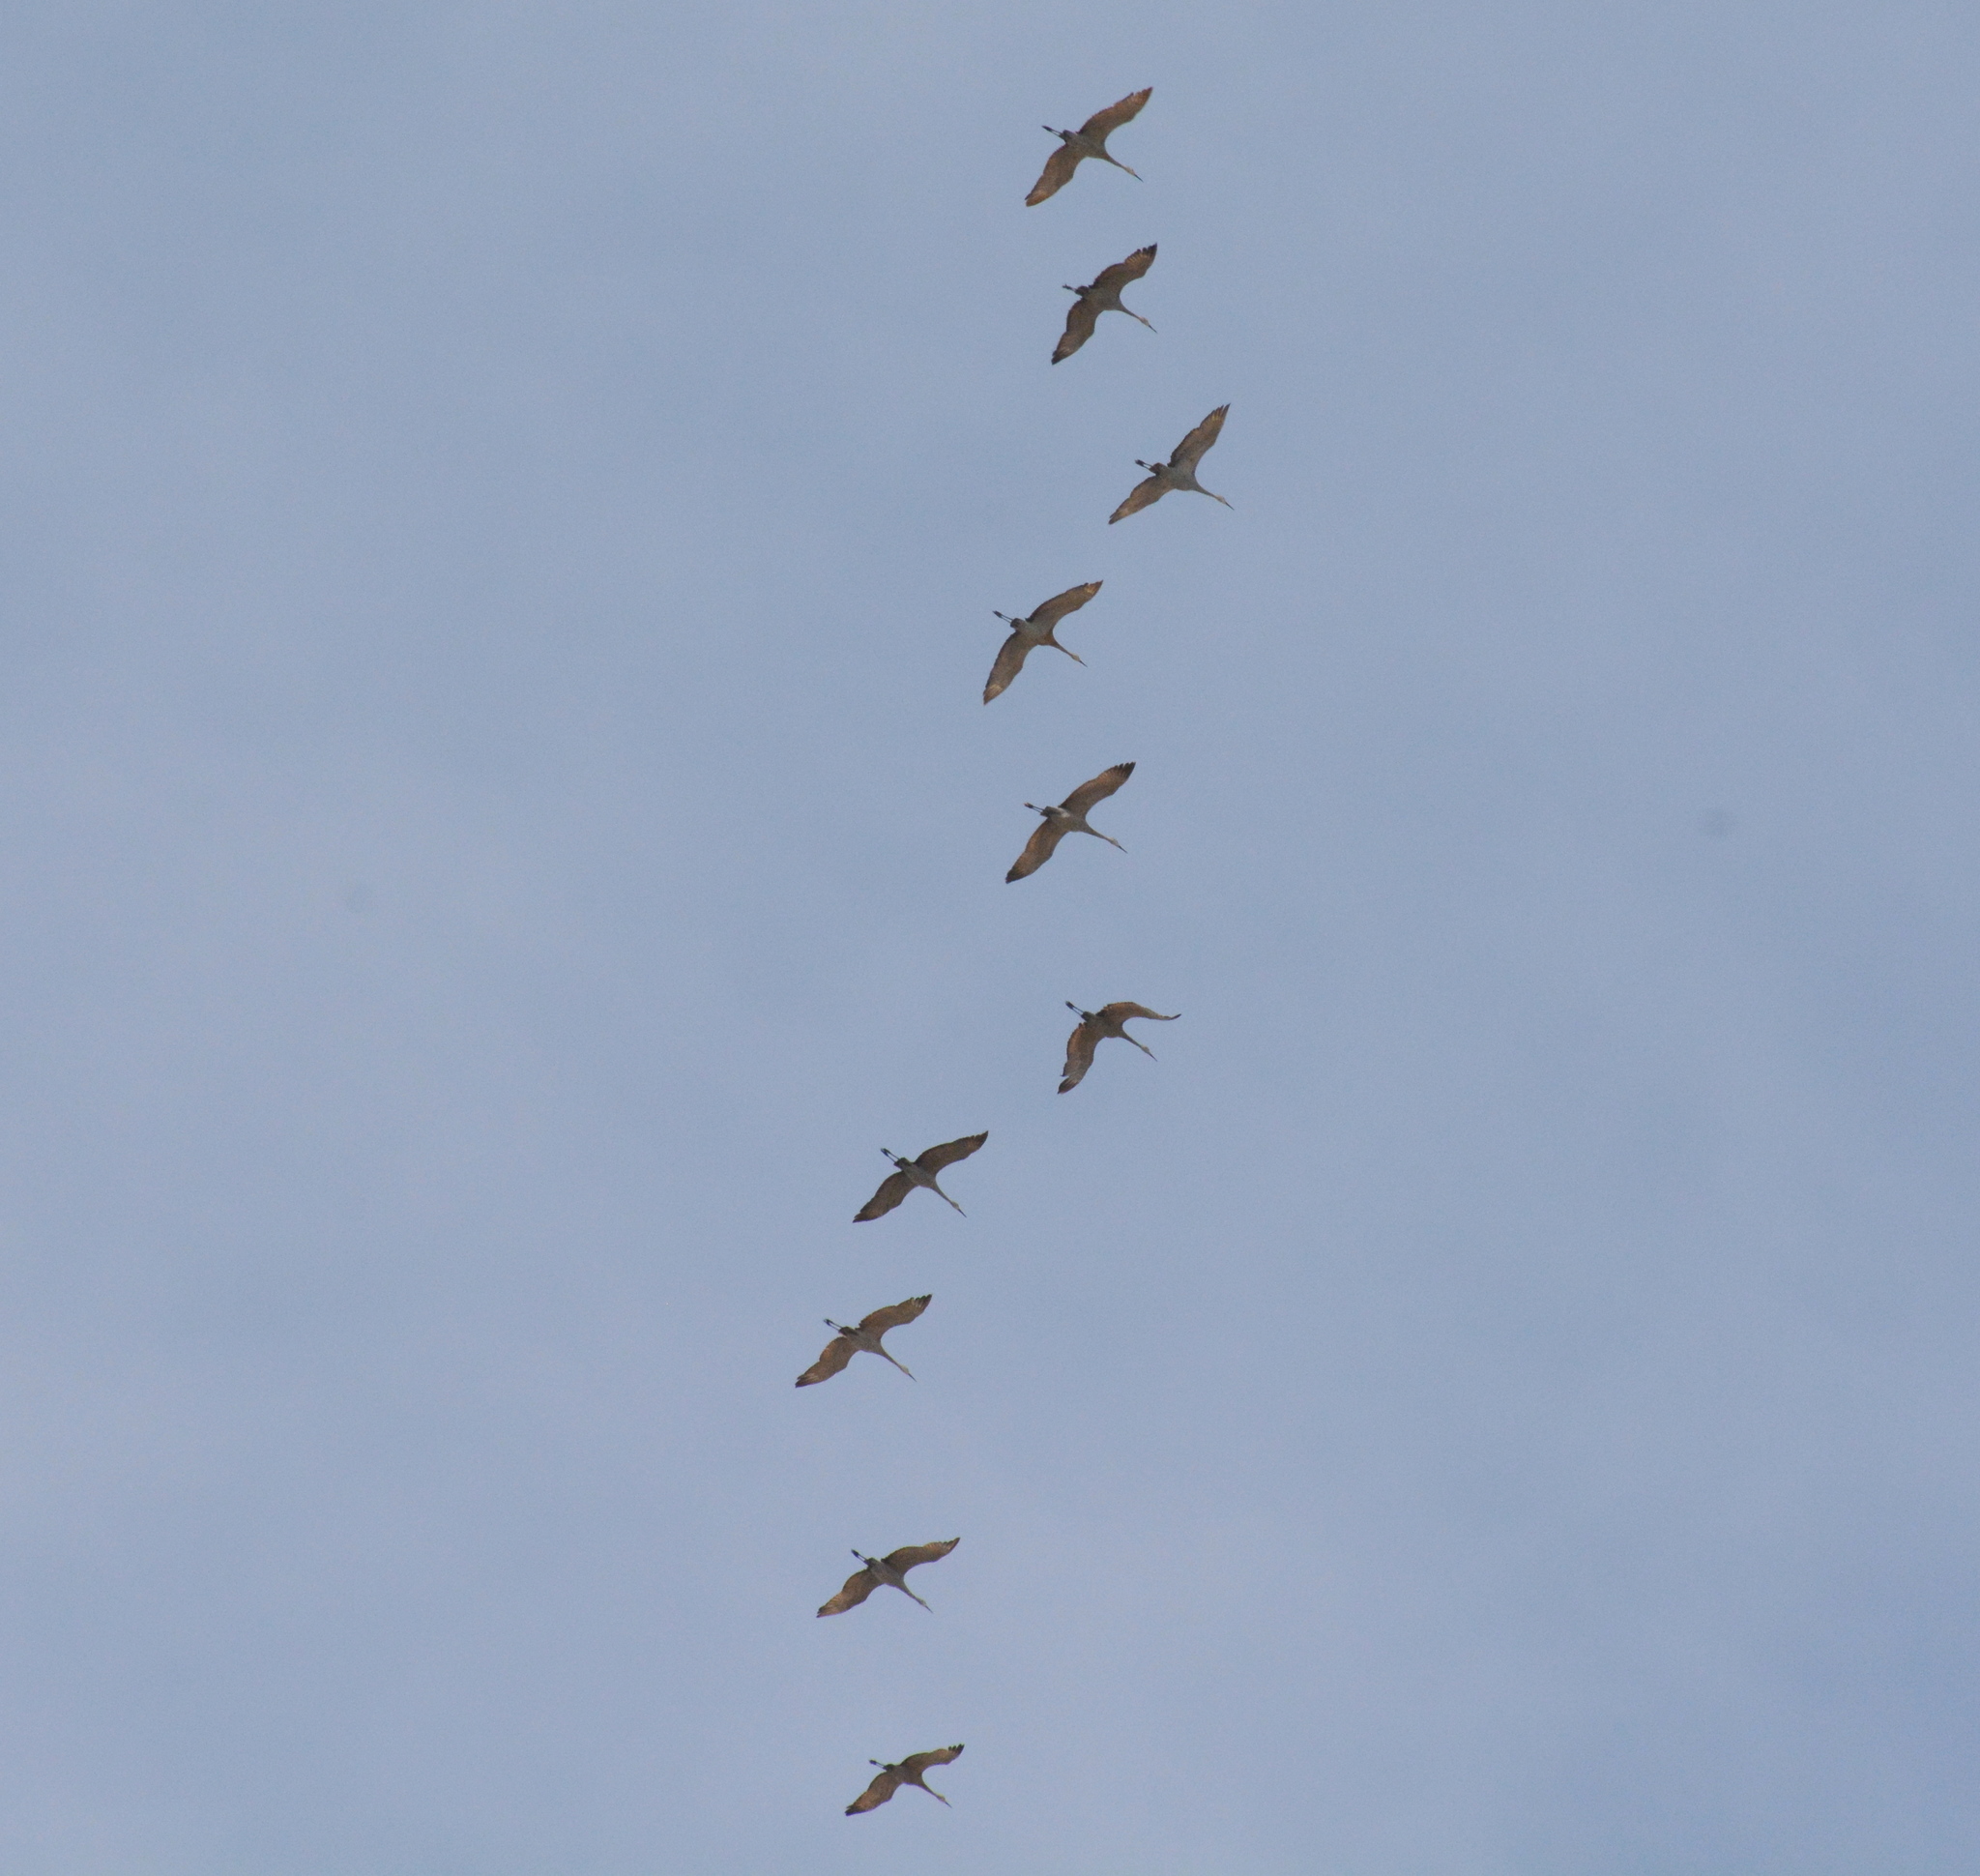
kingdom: Animalia
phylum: Chordata
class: Aves
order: Gruiformes
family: Gruidae
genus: Grus
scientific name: Grus canadensis
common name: Sandhill crane
